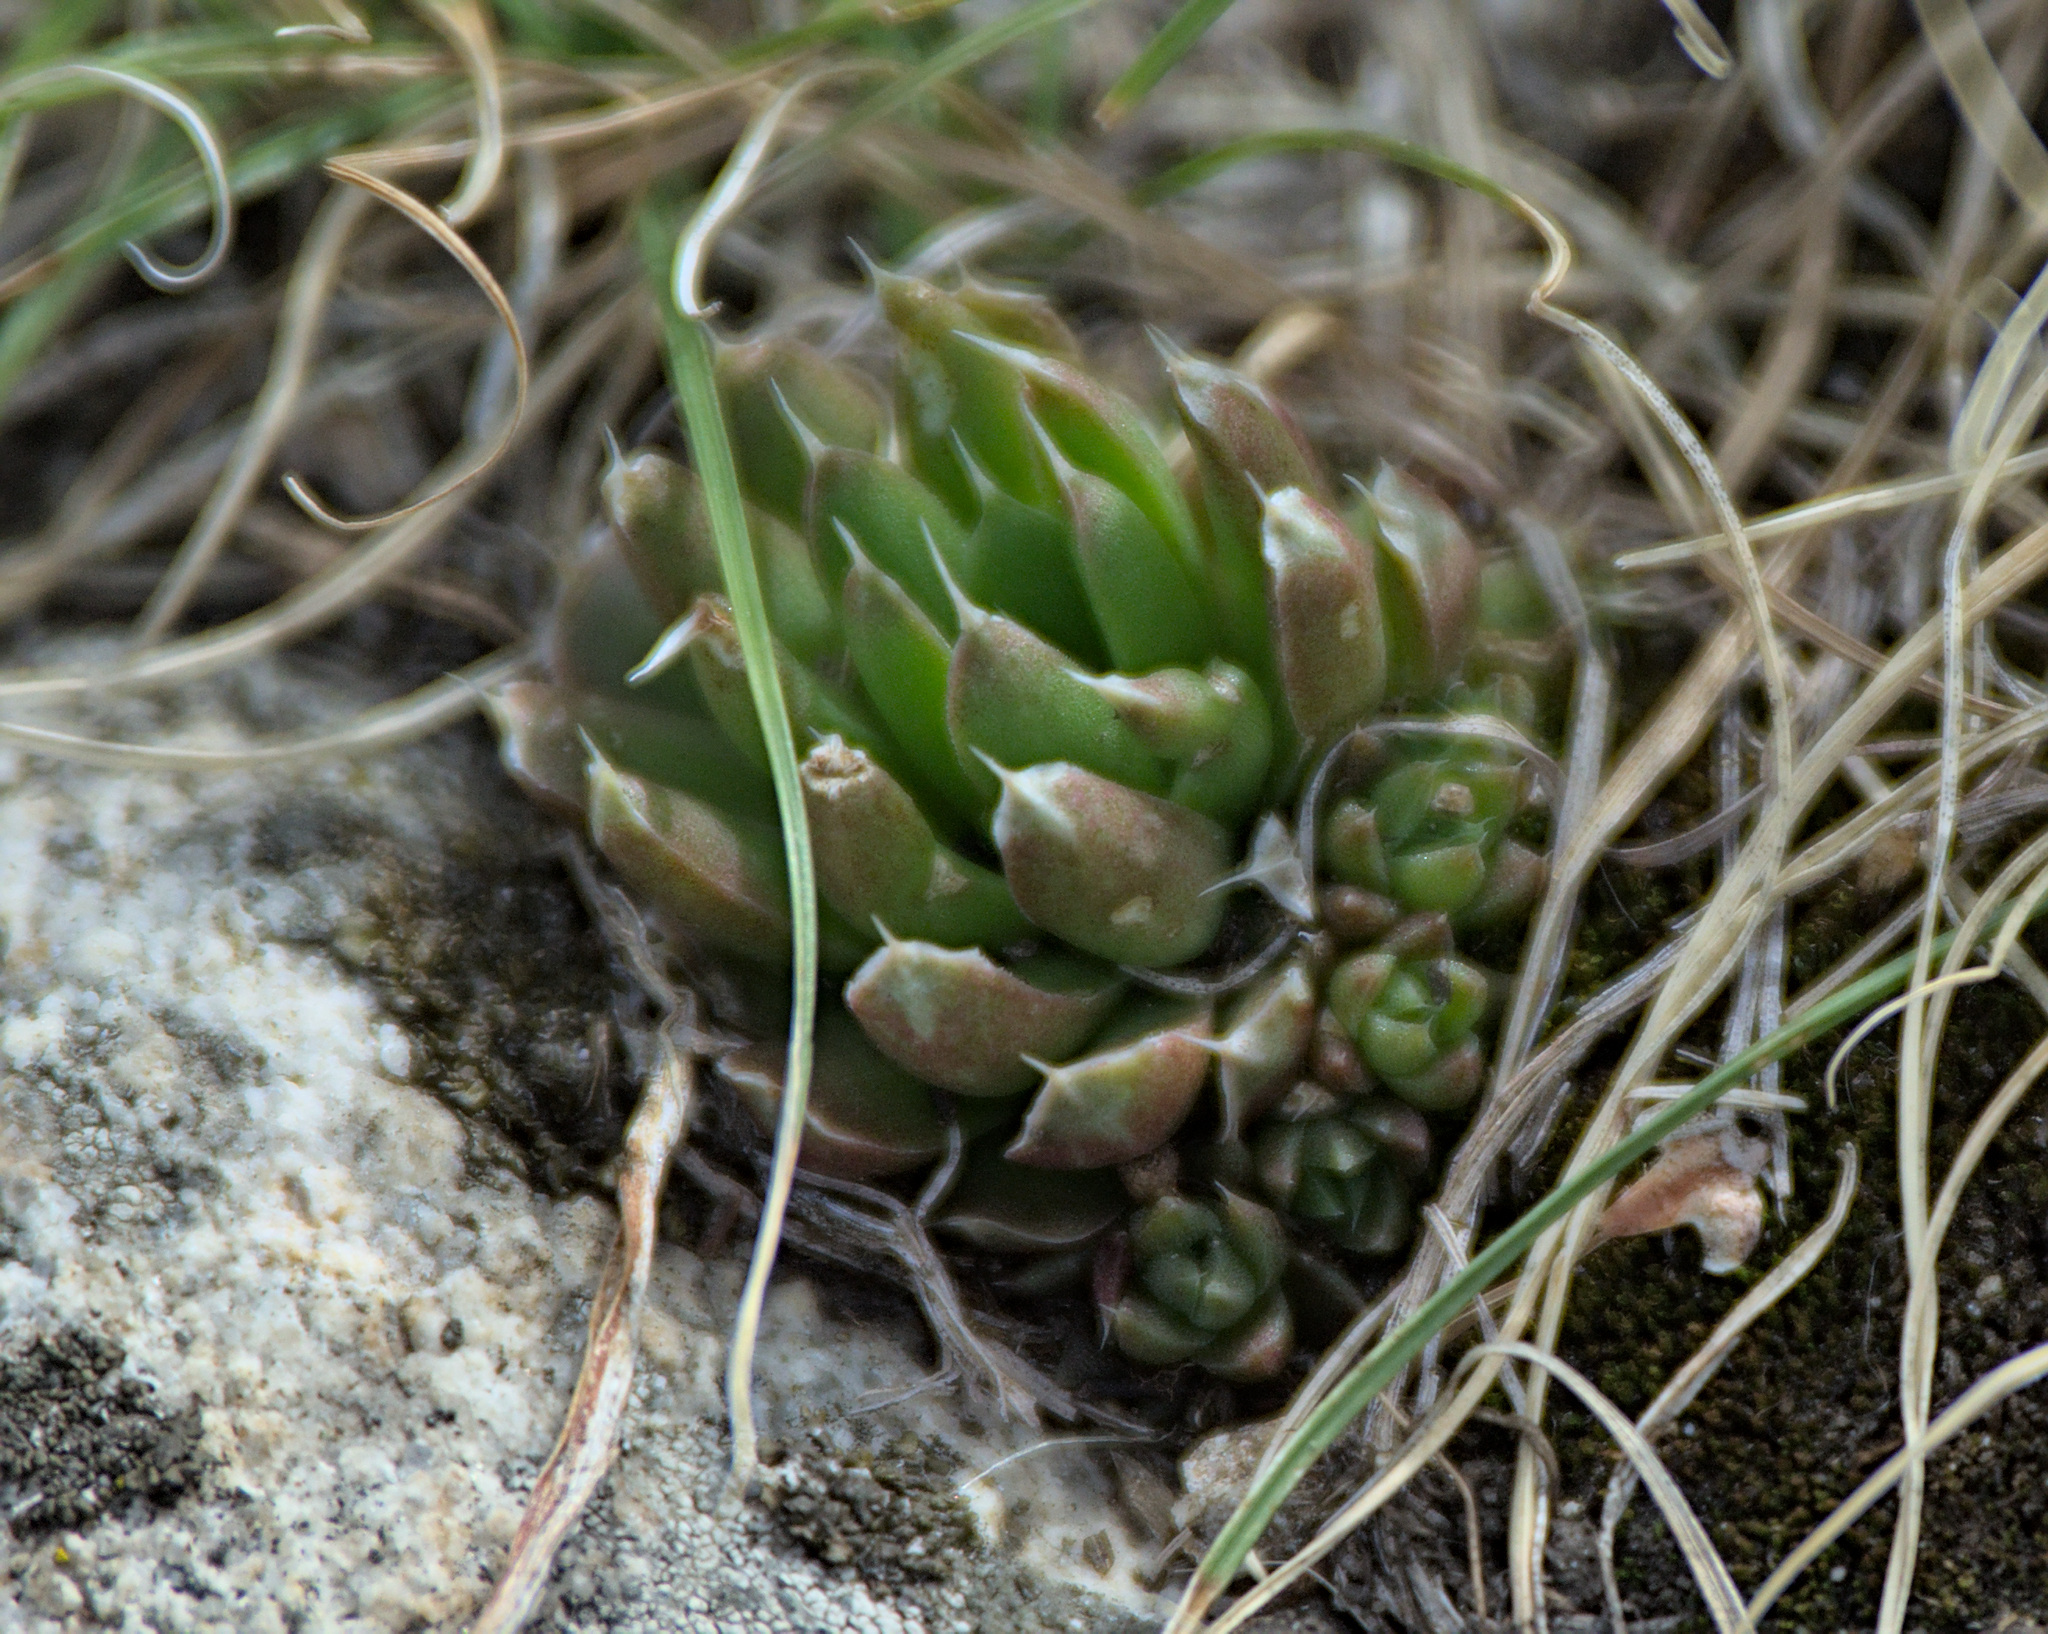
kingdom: Plantae
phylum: Tracheophyta
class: Magnoliopsida
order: Saxifragales
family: Crassulaceae
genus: Orostachys
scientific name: Orostachys spinosa
